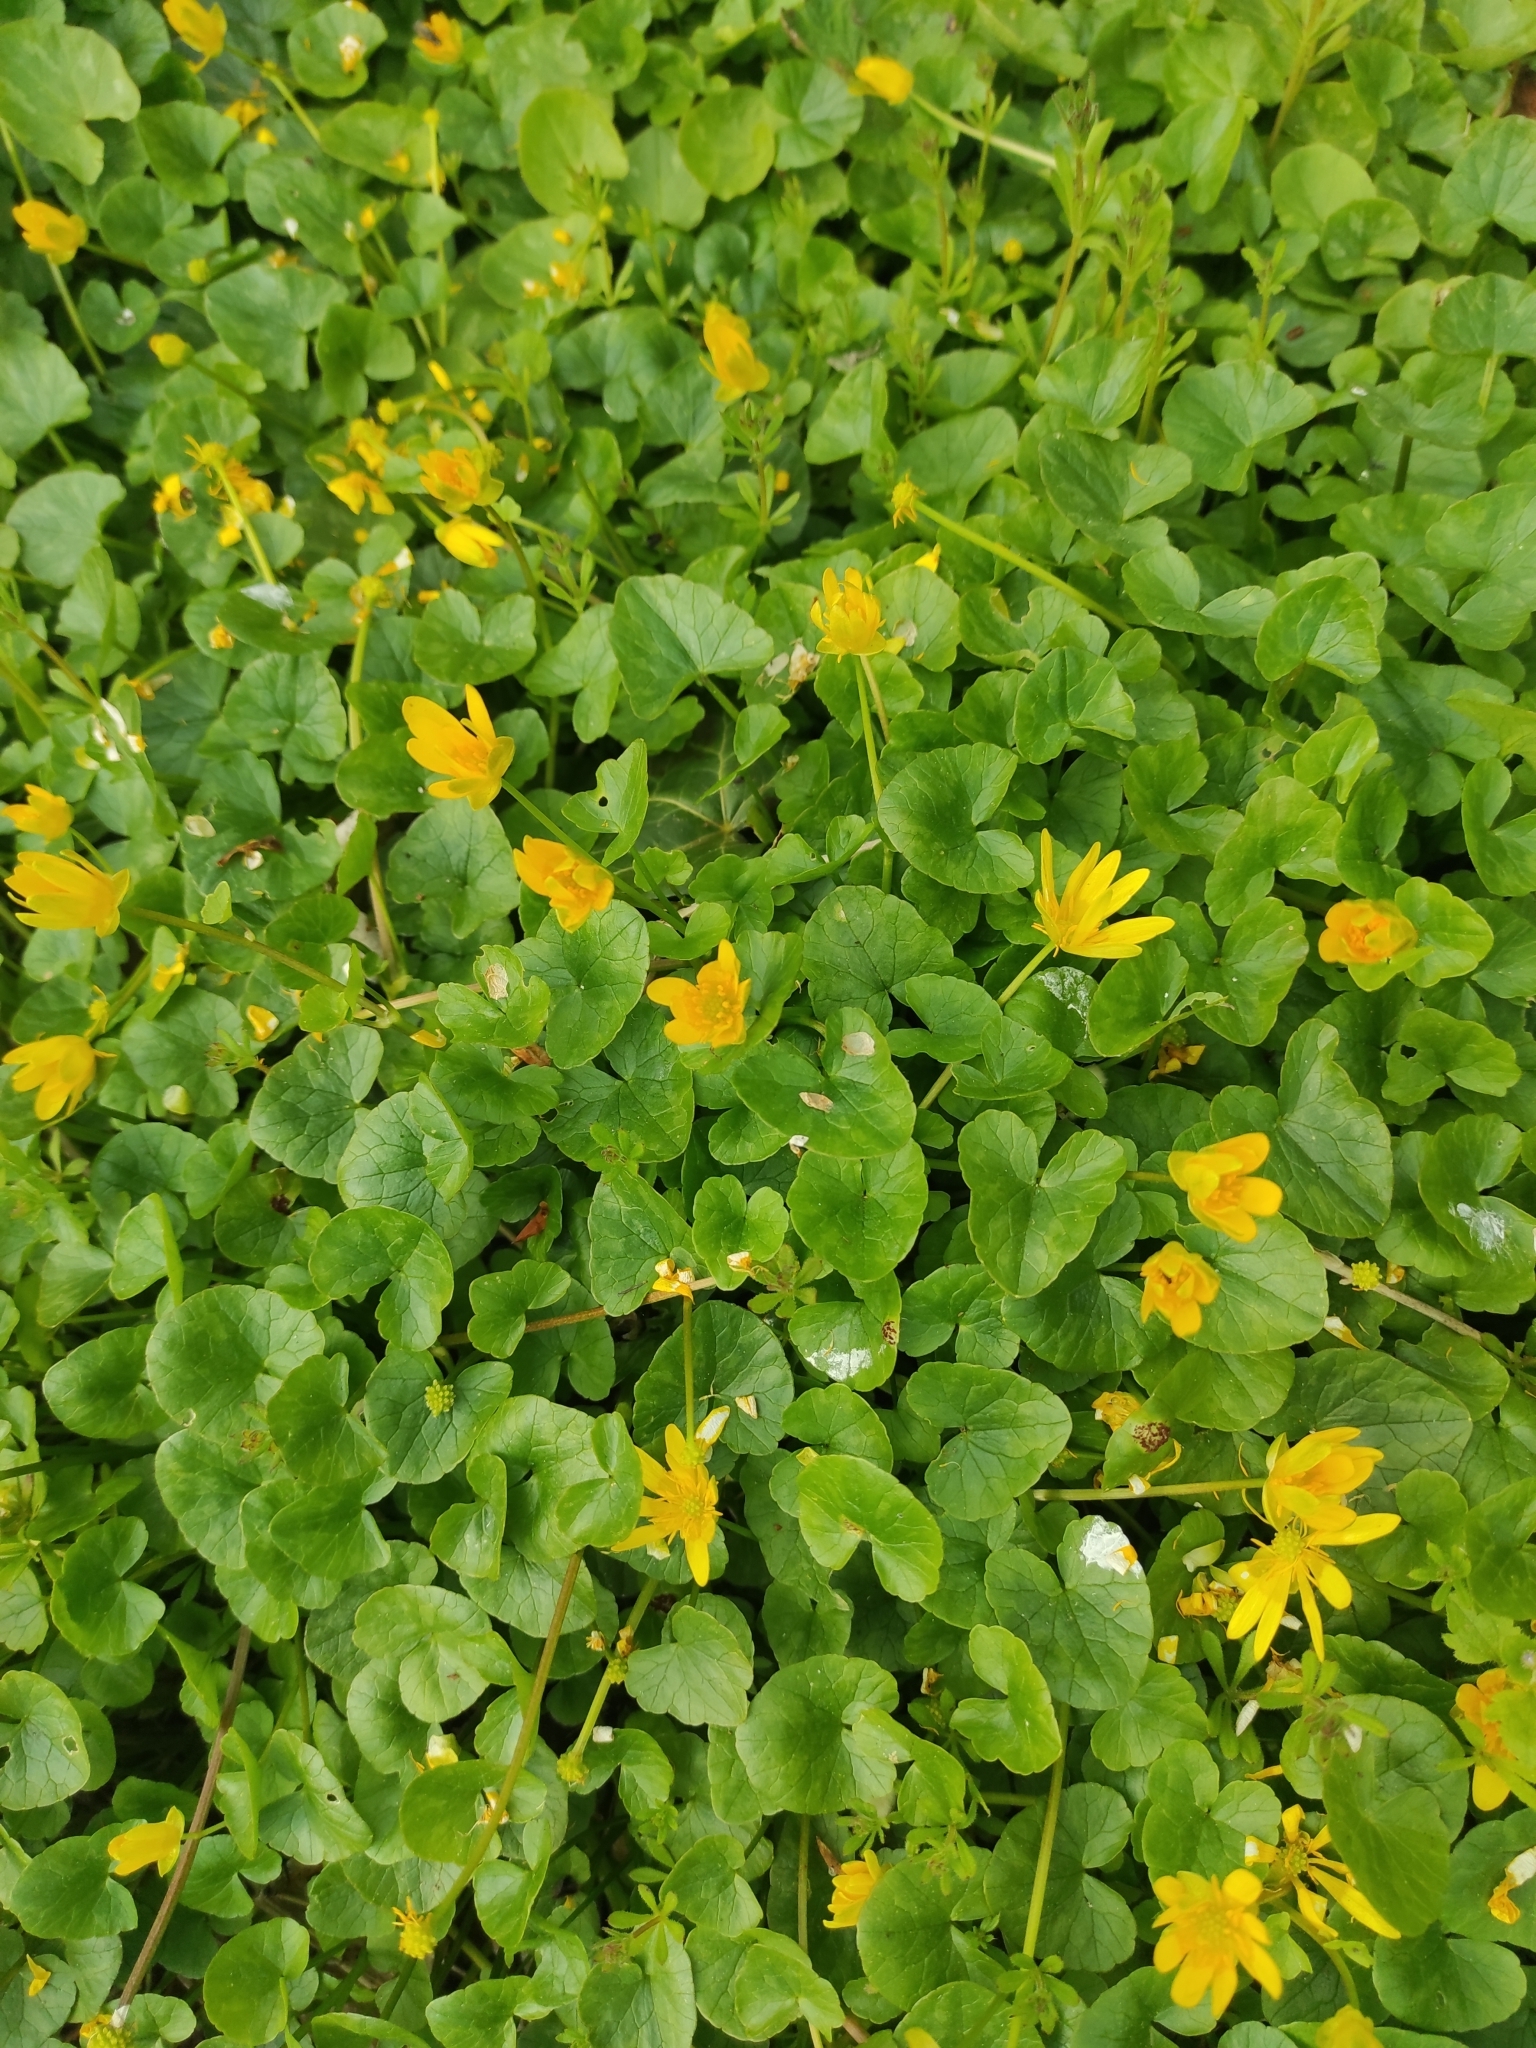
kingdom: Plantae
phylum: Tracheophyta
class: Magnoliopsida
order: Ranunculales
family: Ranunculaceae
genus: Ficaria
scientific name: Ficaria verna
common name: Lesser celandine
